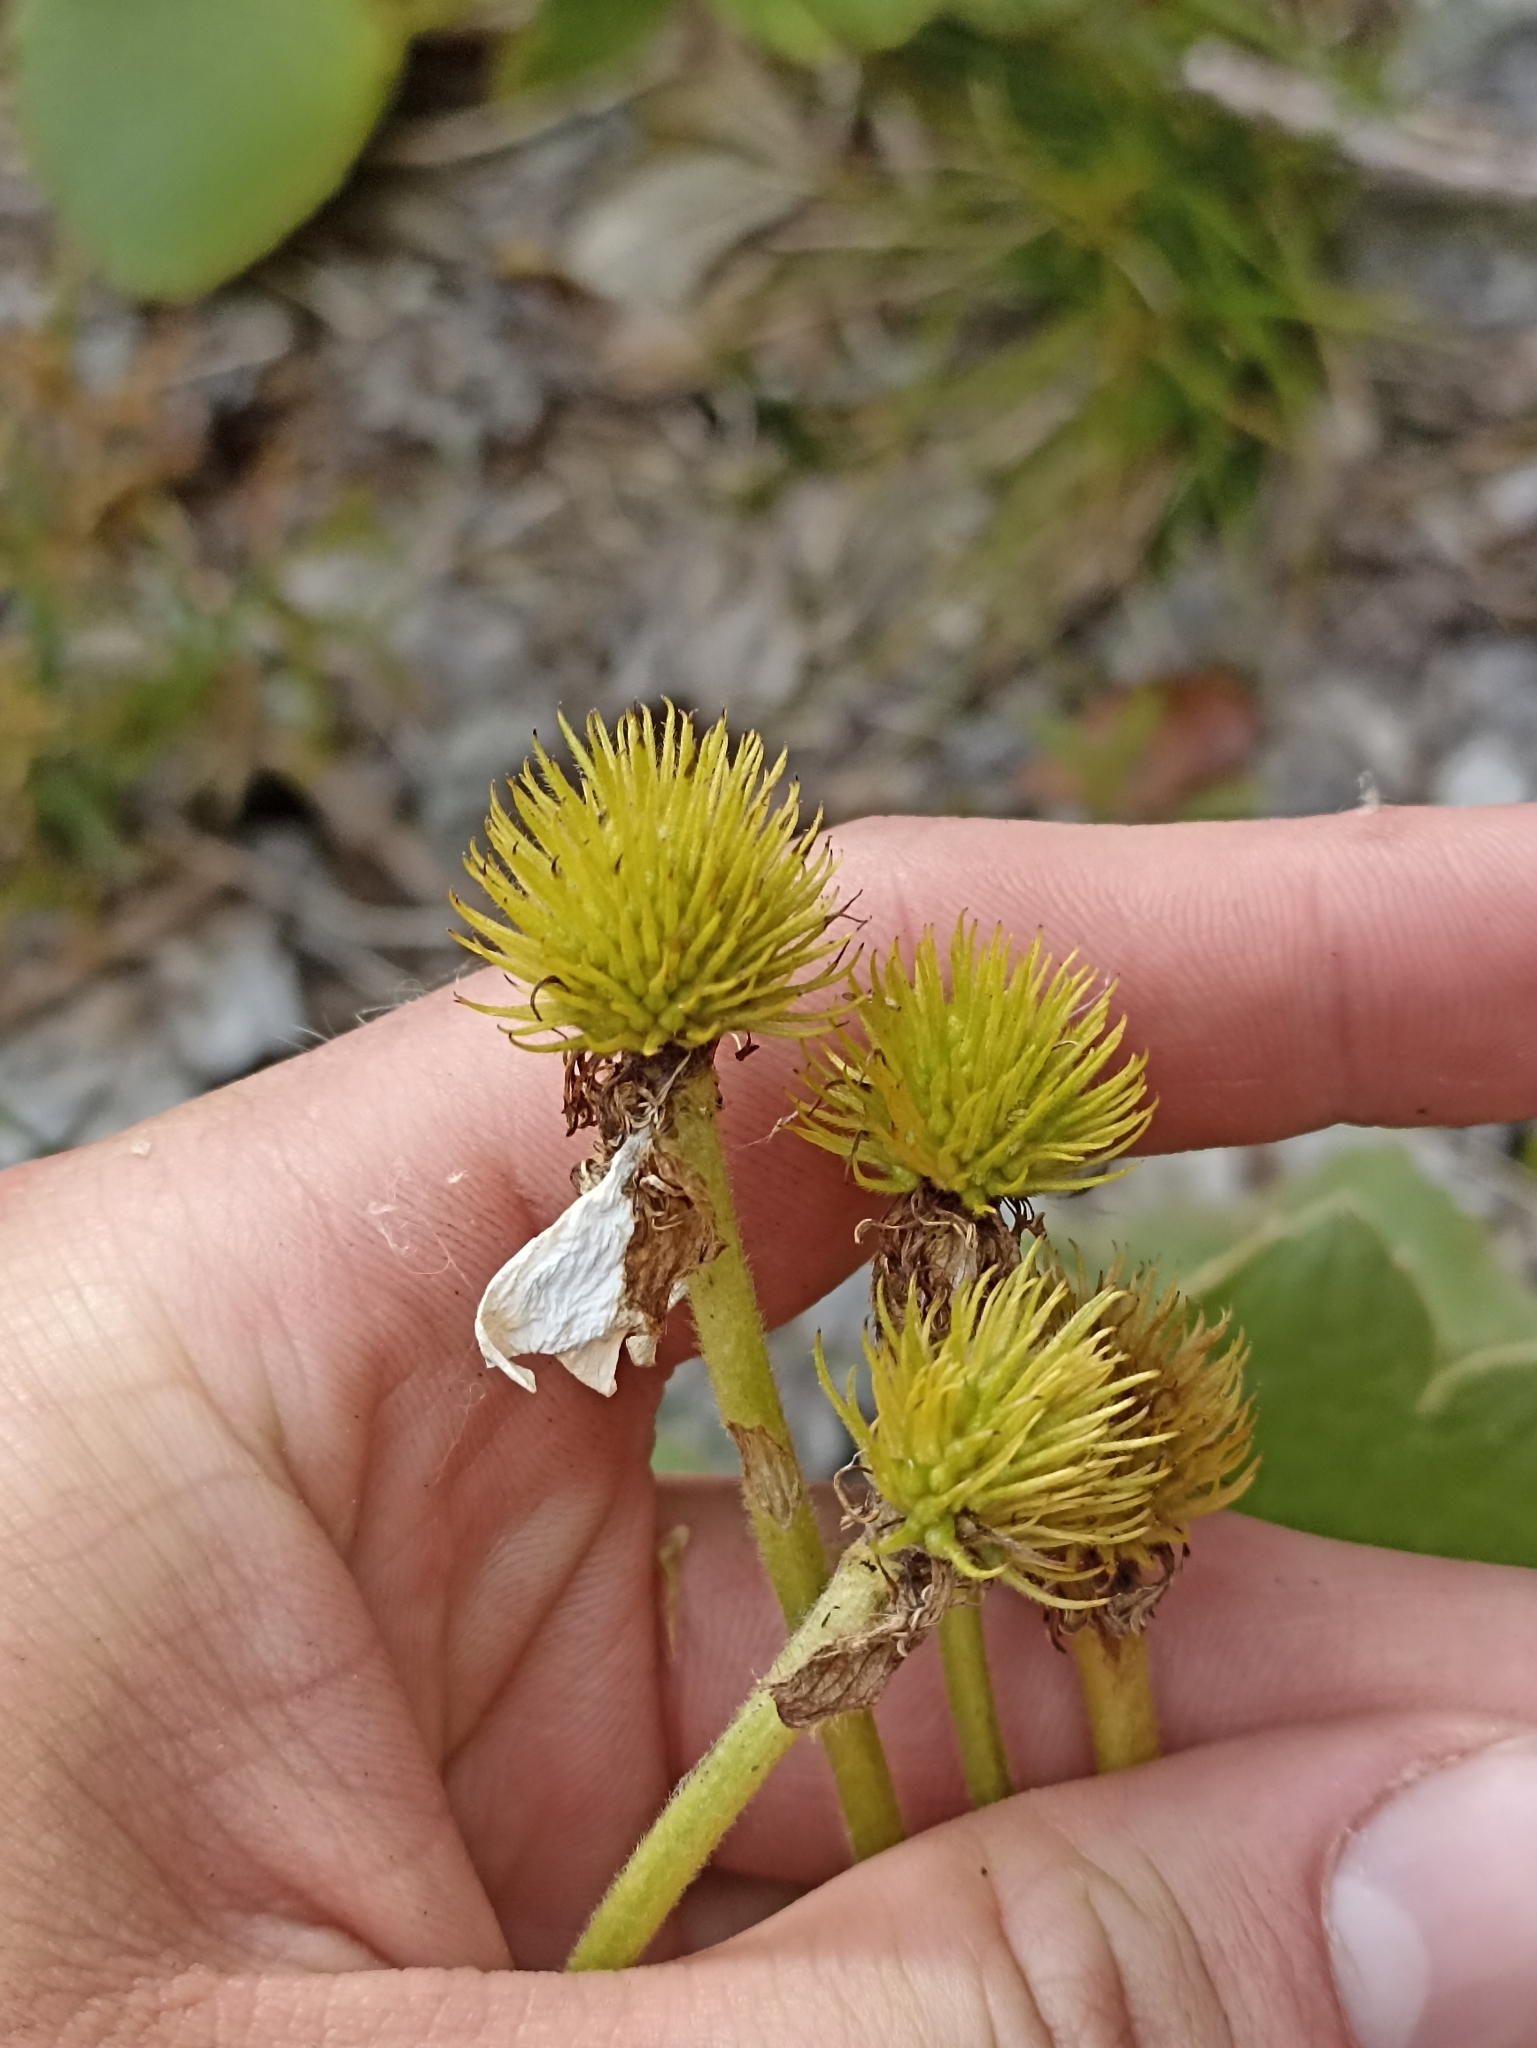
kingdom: Plantae
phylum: Tracheophyta
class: Magnoliopsida
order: Ranunculales
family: Ranunculaceae
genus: Ranunculus
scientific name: Ranunculus insignis
